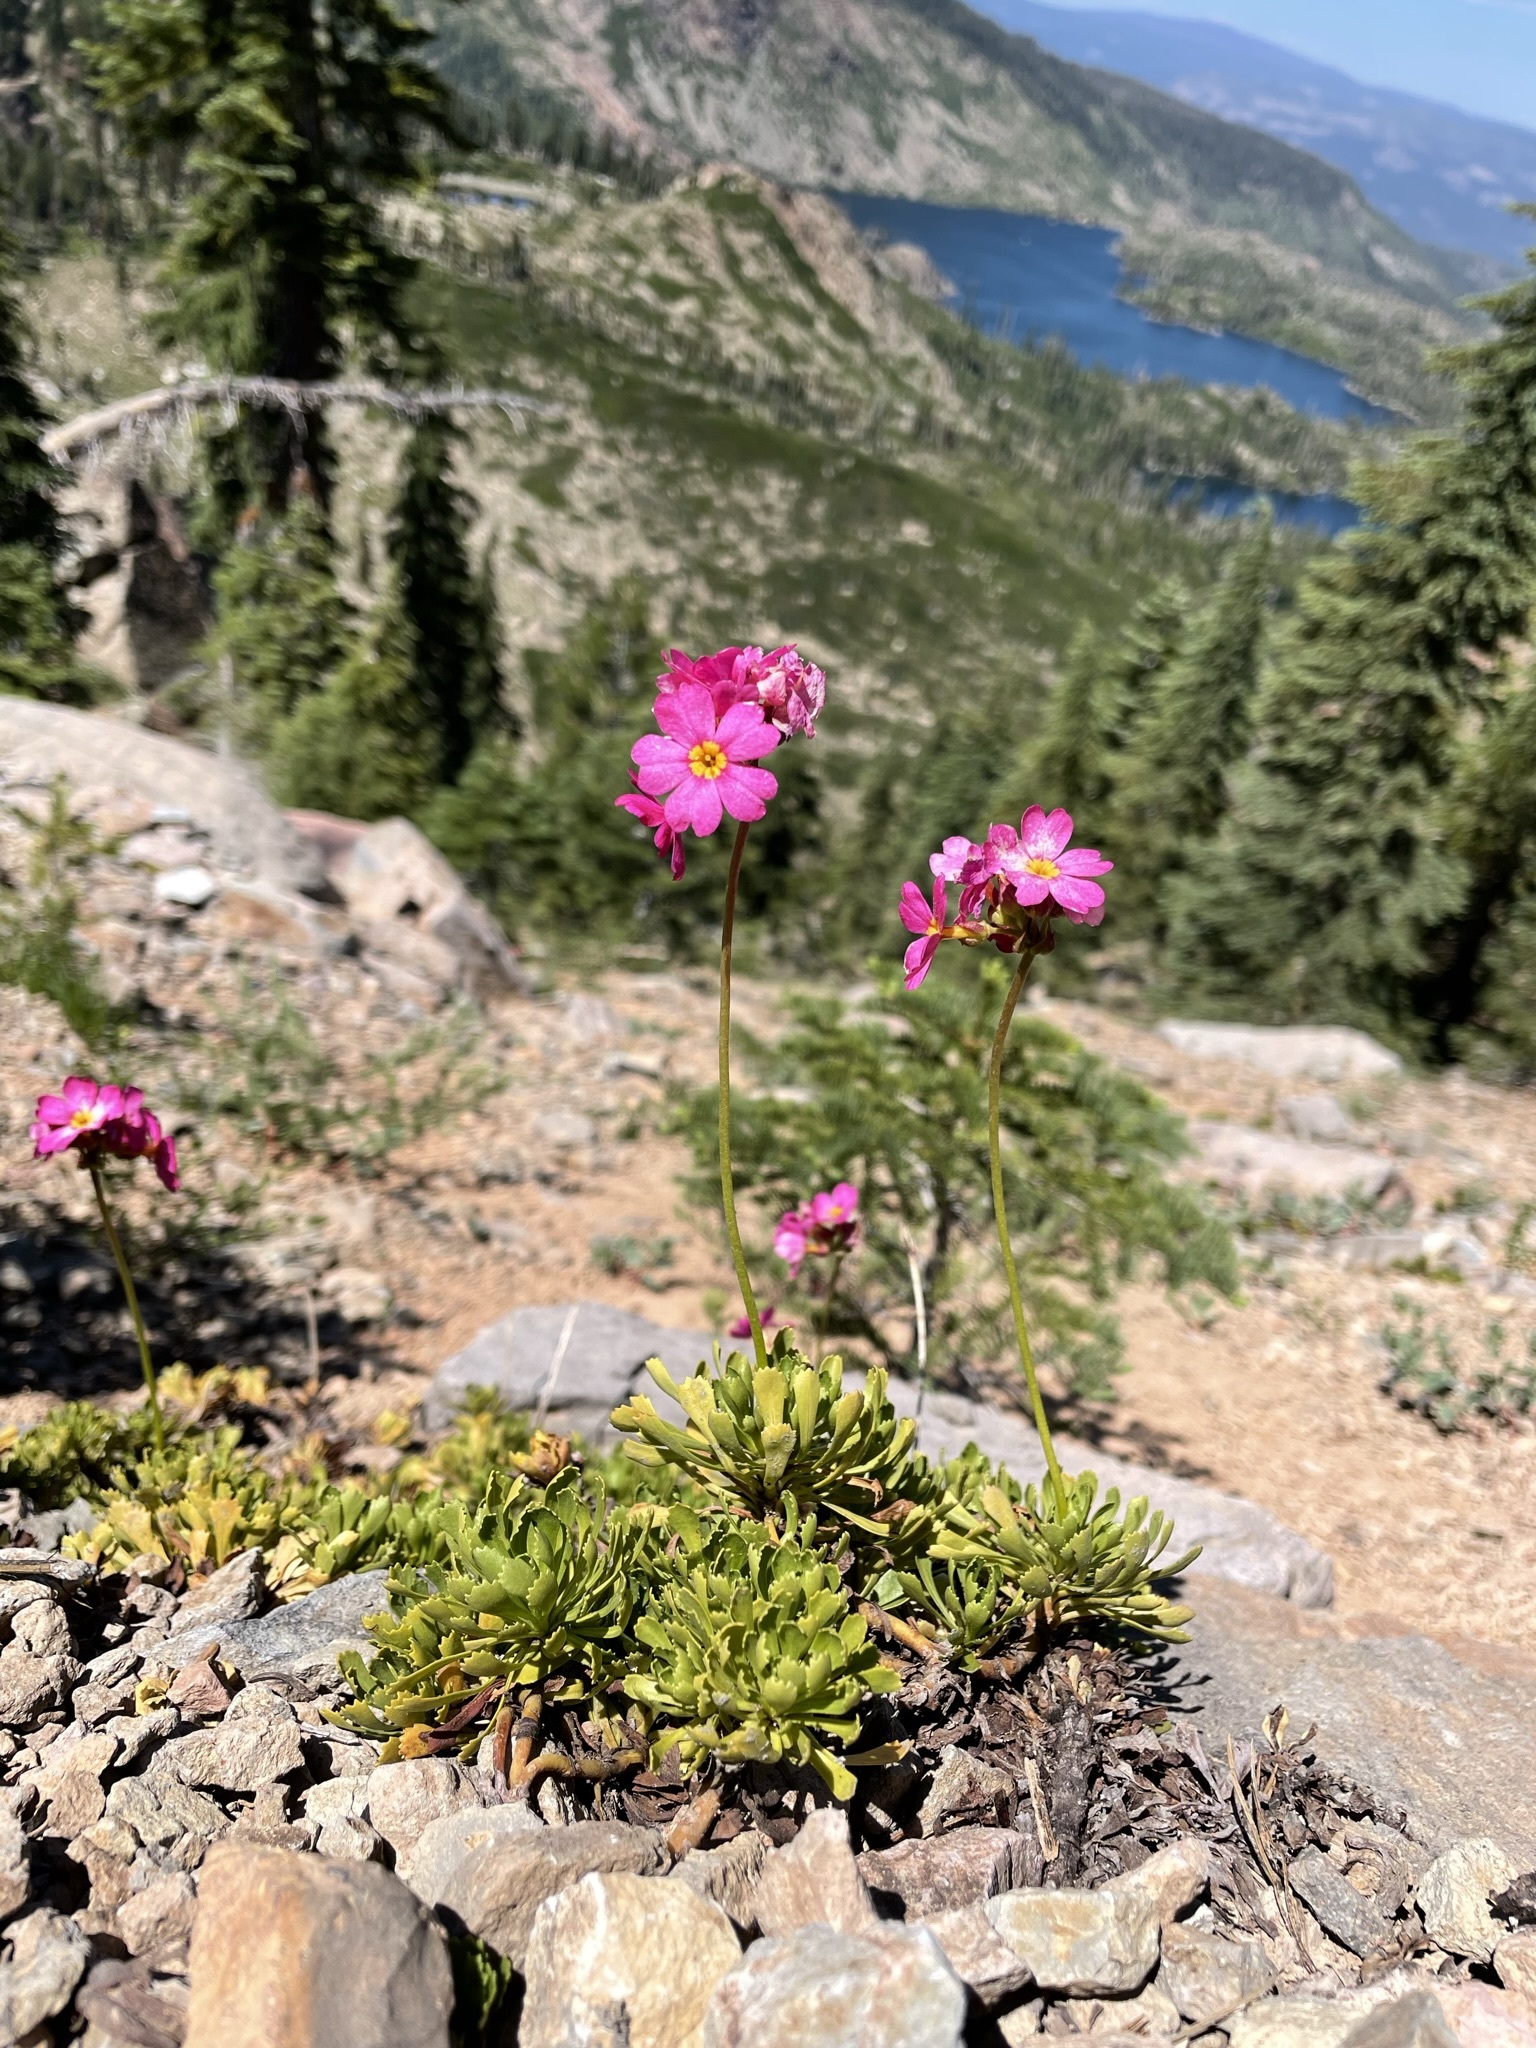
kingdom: Plantae
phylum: Tracheophyta
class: Magnoliopsida
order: Ericales
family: Primulaceae
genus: Primula
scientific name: Primula suffrutescens
